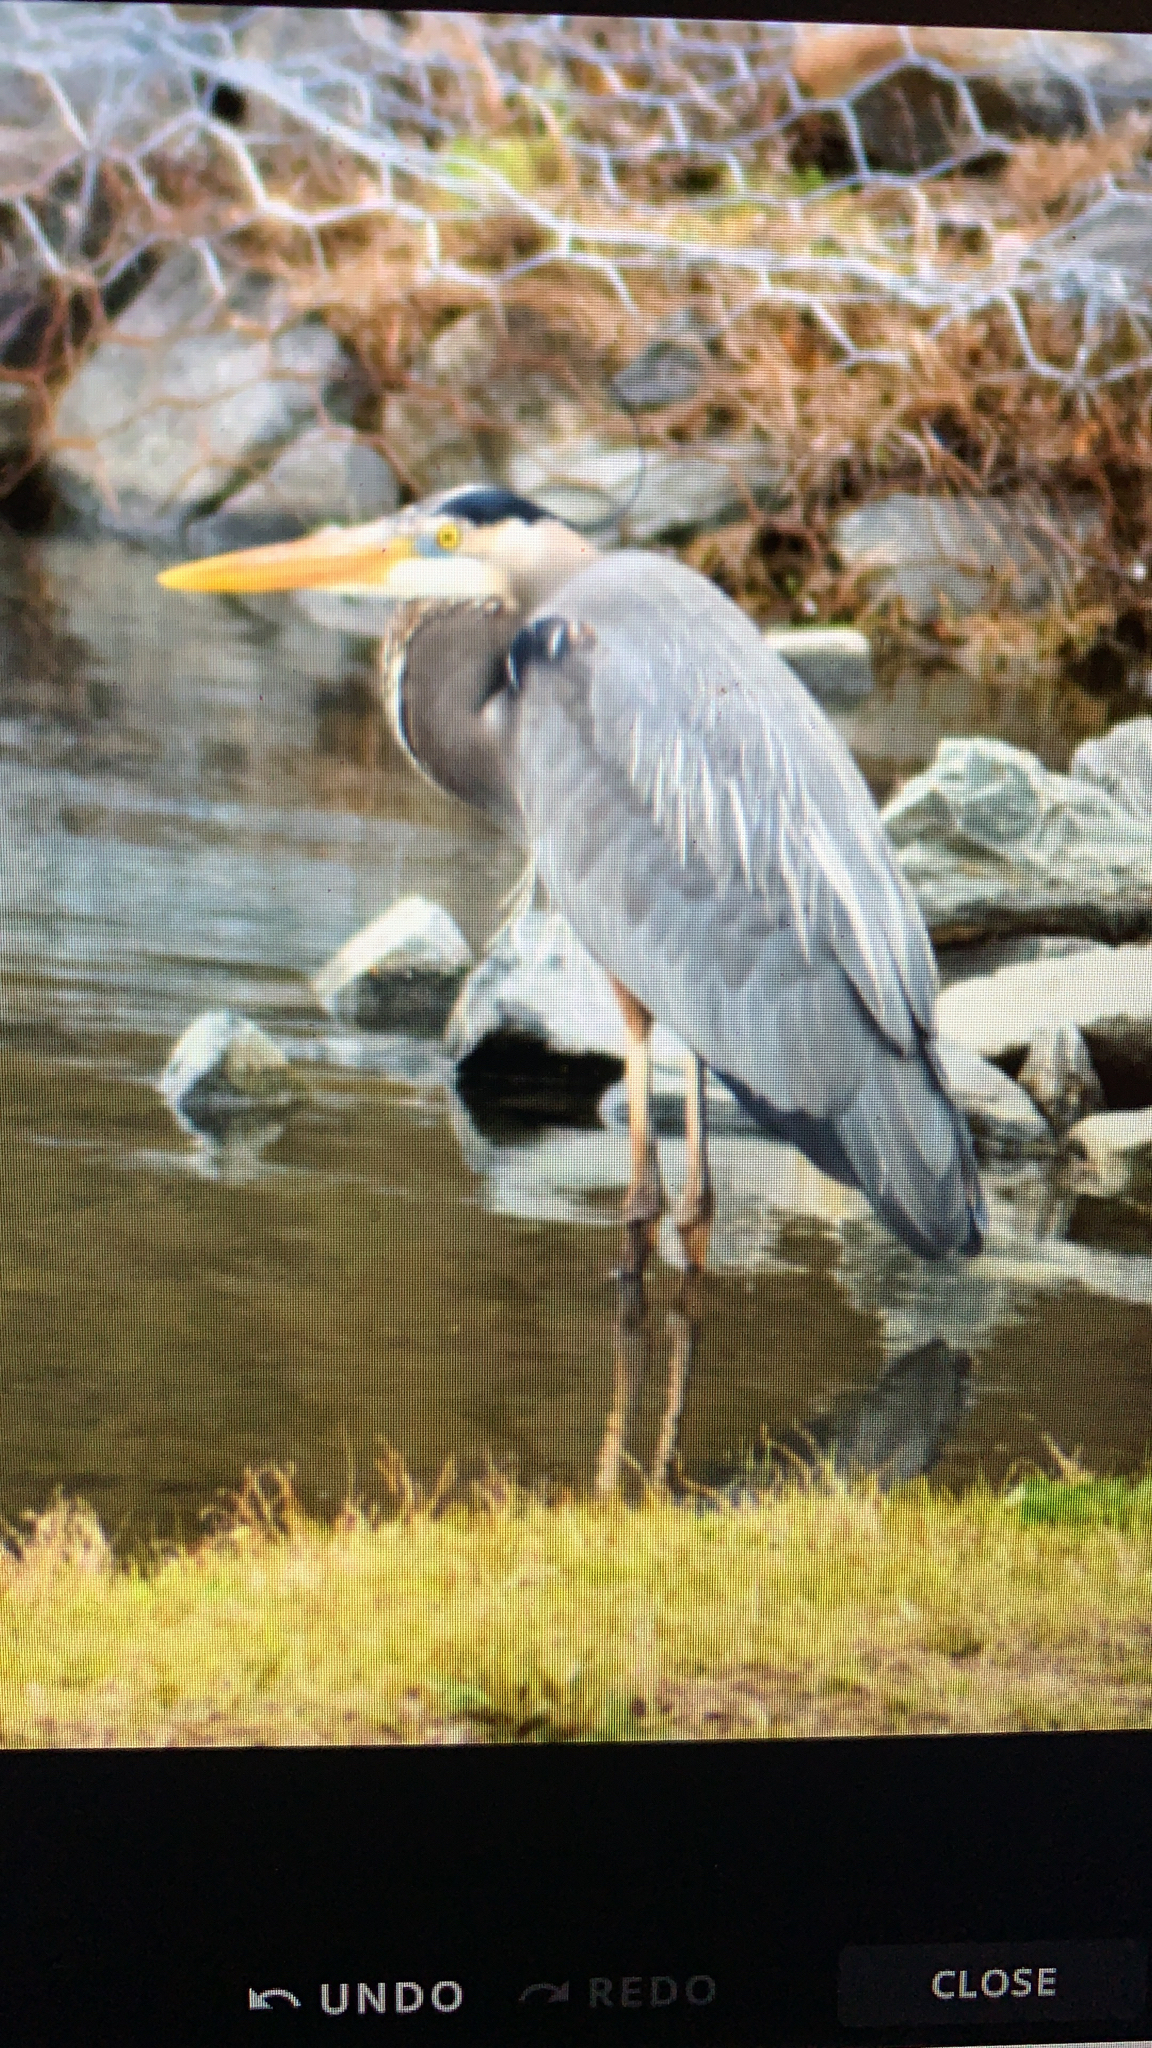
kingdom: Animalia
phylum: Chordata
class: Aves
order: Pelecaniformes
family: Ardeidae
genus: Ardea
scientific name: Ardea herodias
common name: Great blue heron
